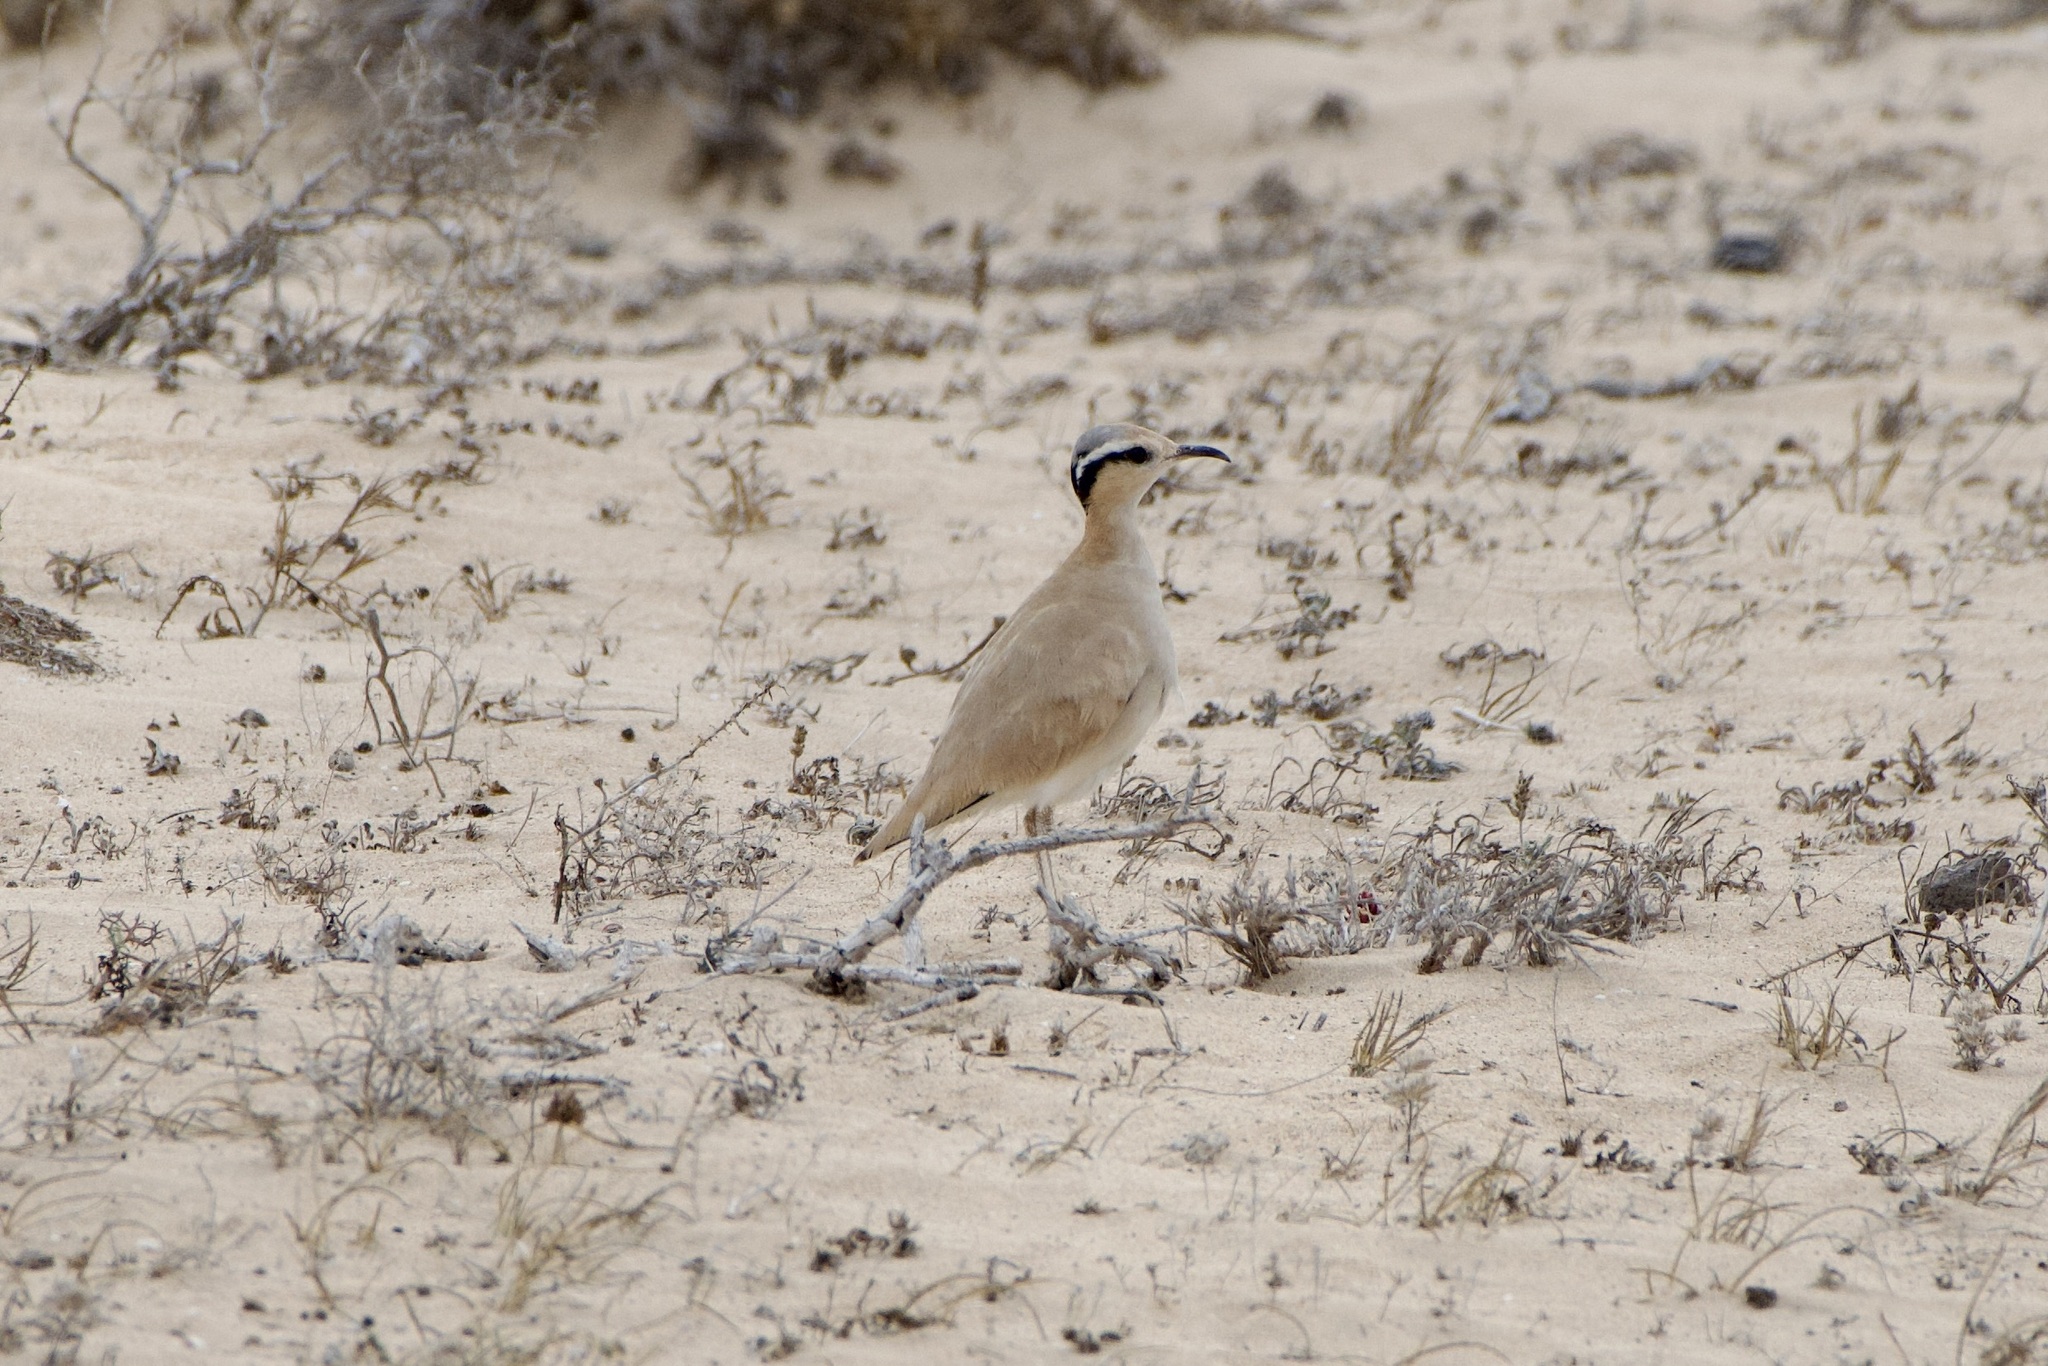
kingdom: Animalia
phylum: Chordata
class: Aves
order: Charadriiformes
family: Glareolidae
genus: Cursorius
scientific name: Cursorius cursor
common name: Cream-colored courser
